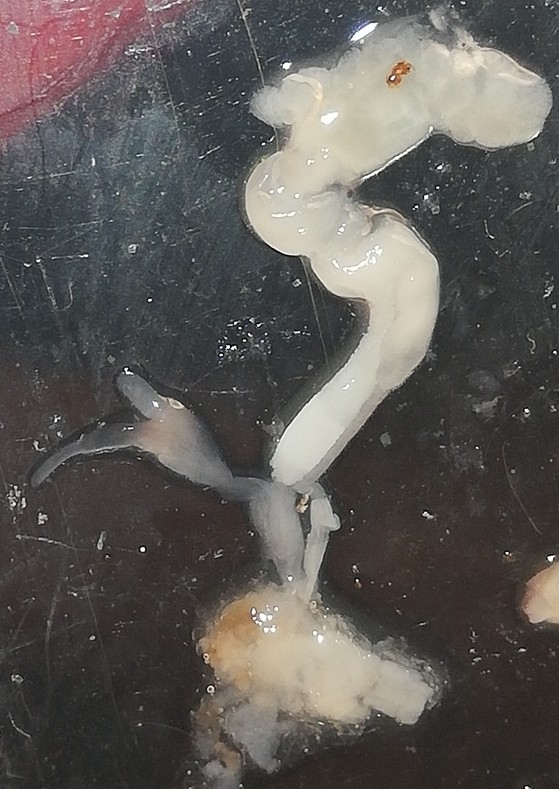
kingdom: Animalia
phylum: Mollusca
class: Gastropoda
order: Stylommatophora
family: Limacidae
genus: Ambigolimax
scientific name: Ambigolimax valentianus
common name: Greenhouse slug
